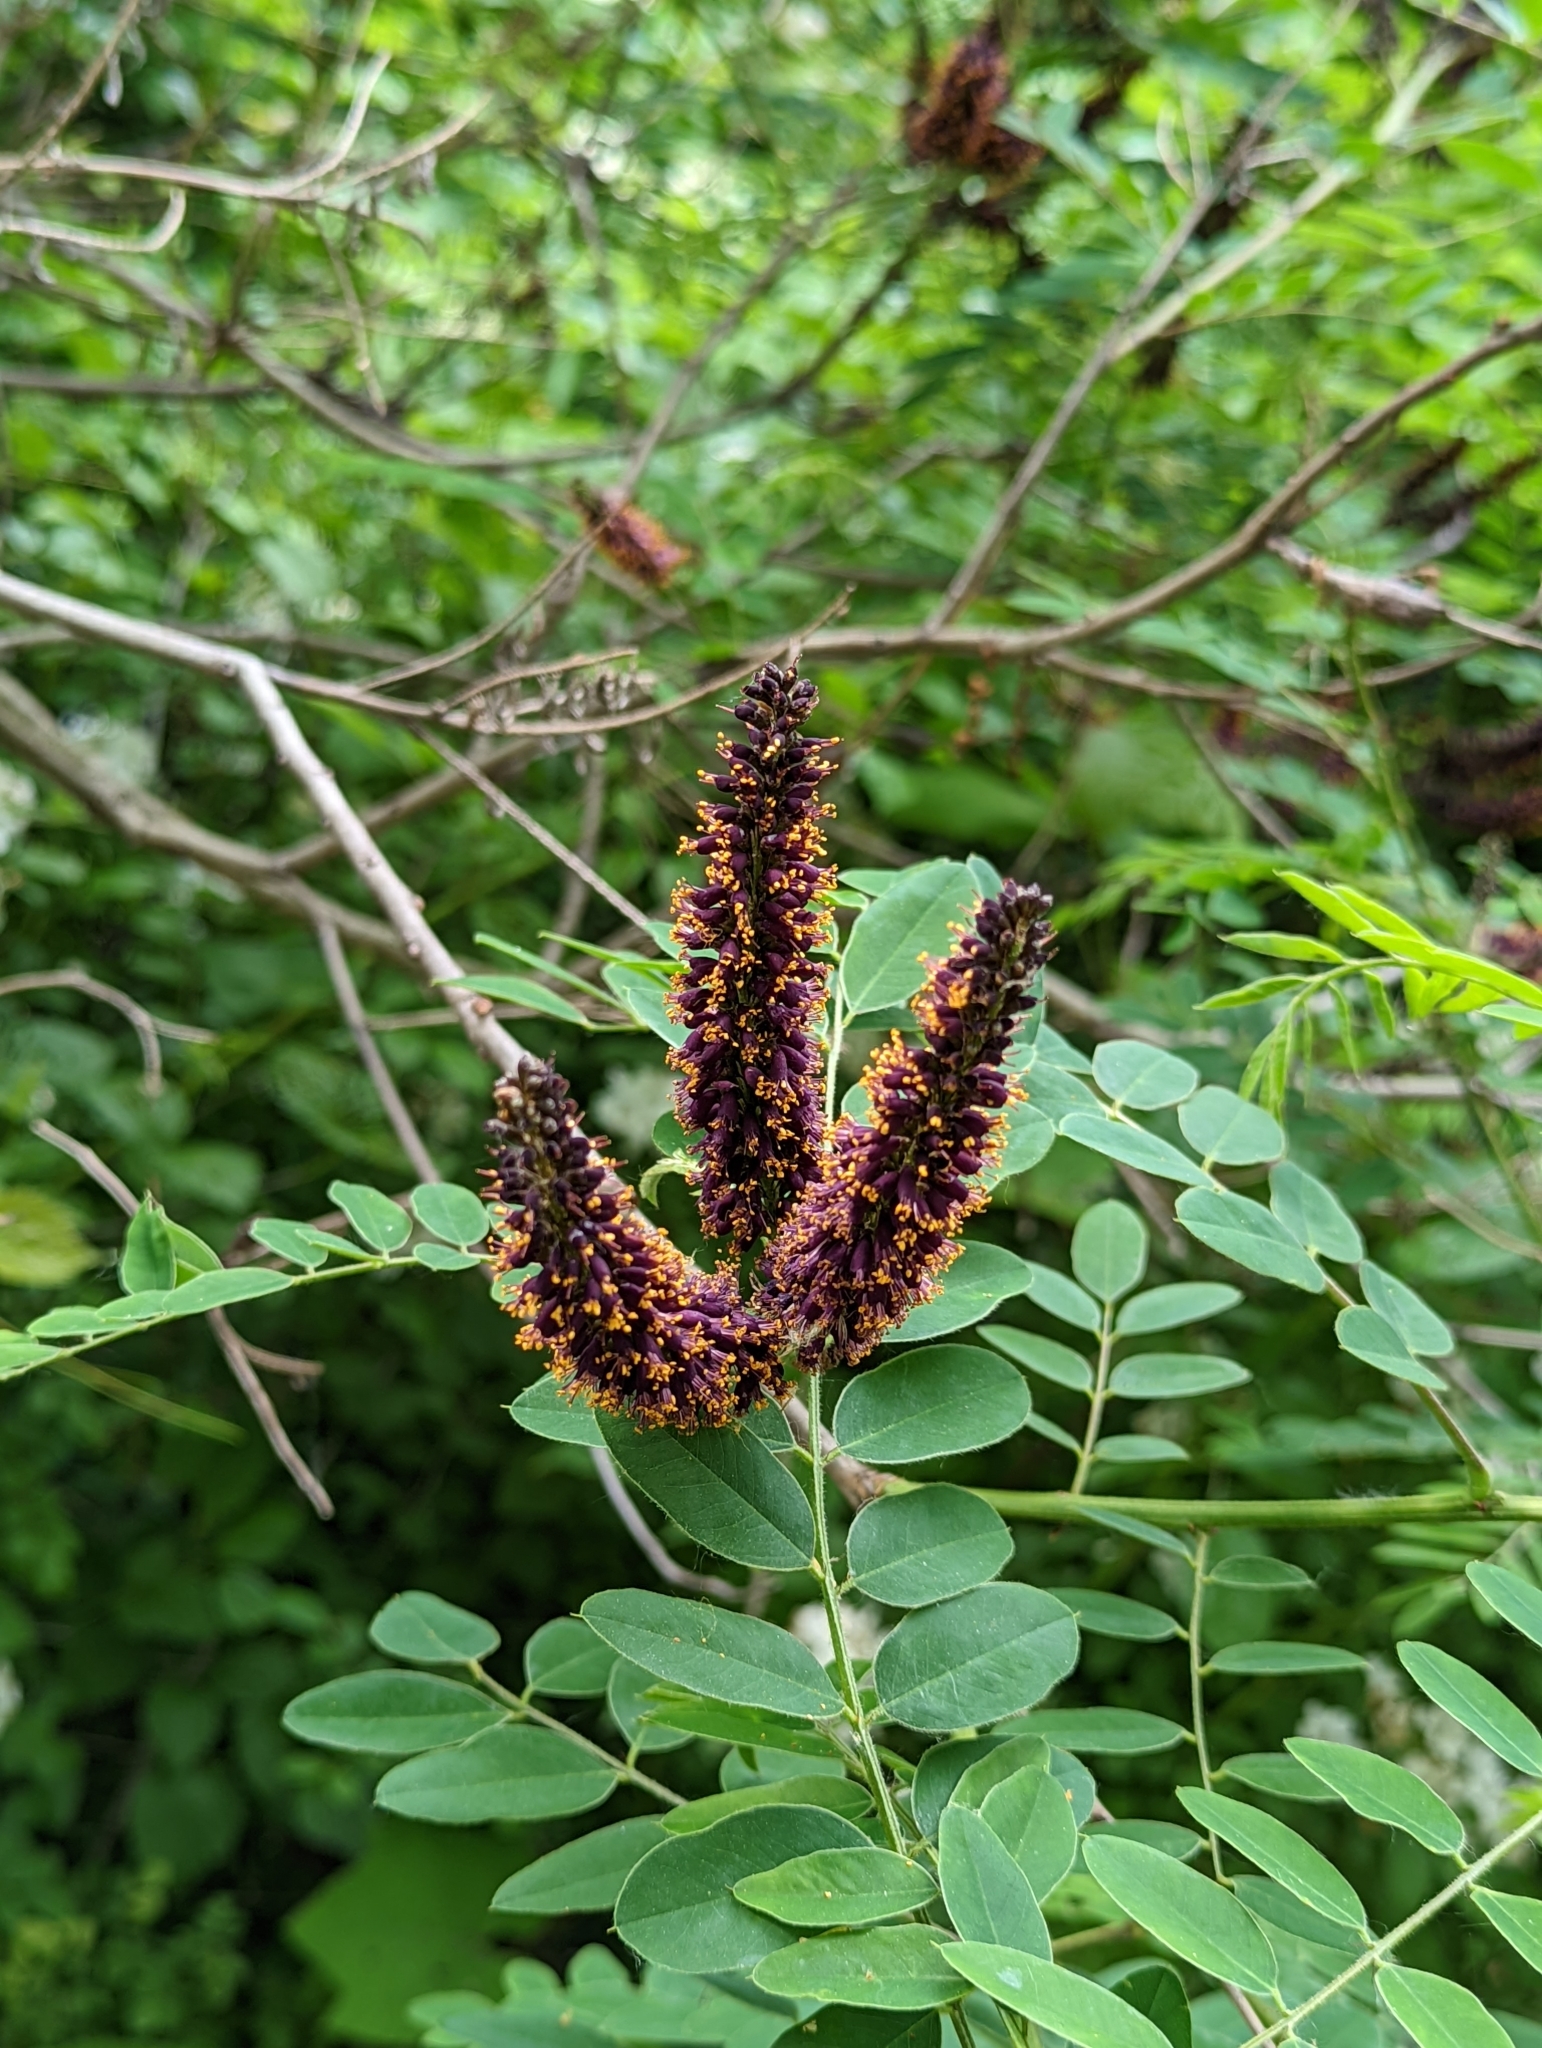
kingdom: Plantae
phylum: Tracheophyta
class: Magnoliopsida
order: Fabales
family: Fabaceae
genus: Amorpha
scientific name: Amorpha fruticosa
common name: False indigo
